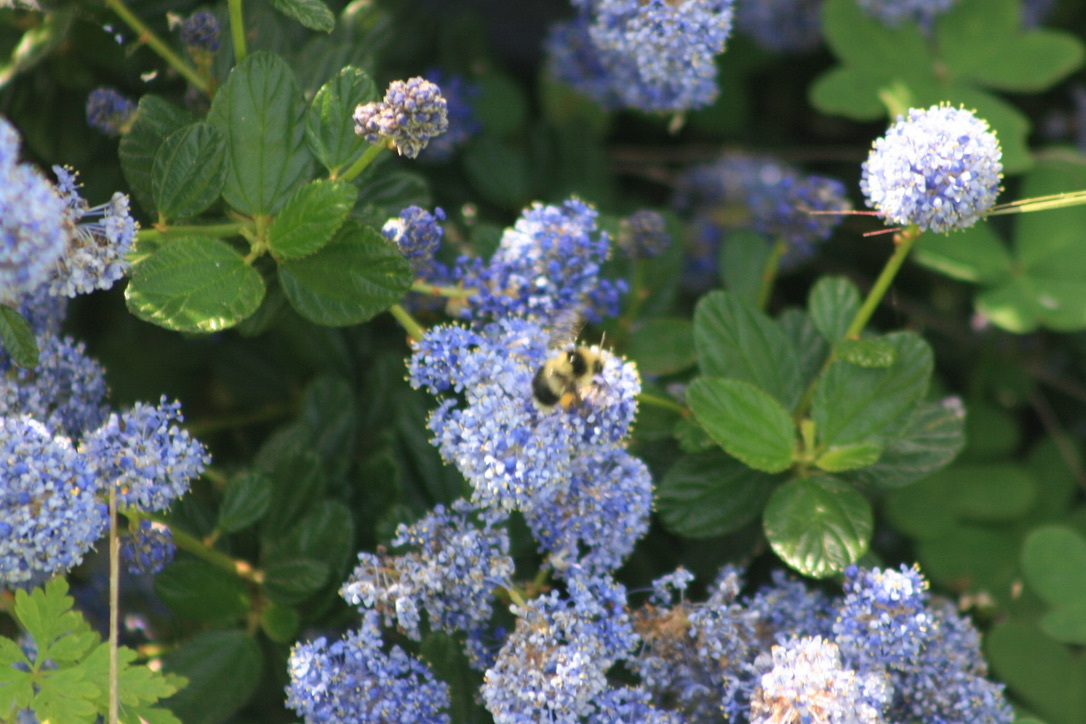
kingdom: Animalia
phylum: Arthropoda
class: Insecta
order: Hymenoptera
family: Apidae
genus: Bombus
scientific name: Bombus melanopygus
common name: Black tail bumble bee
